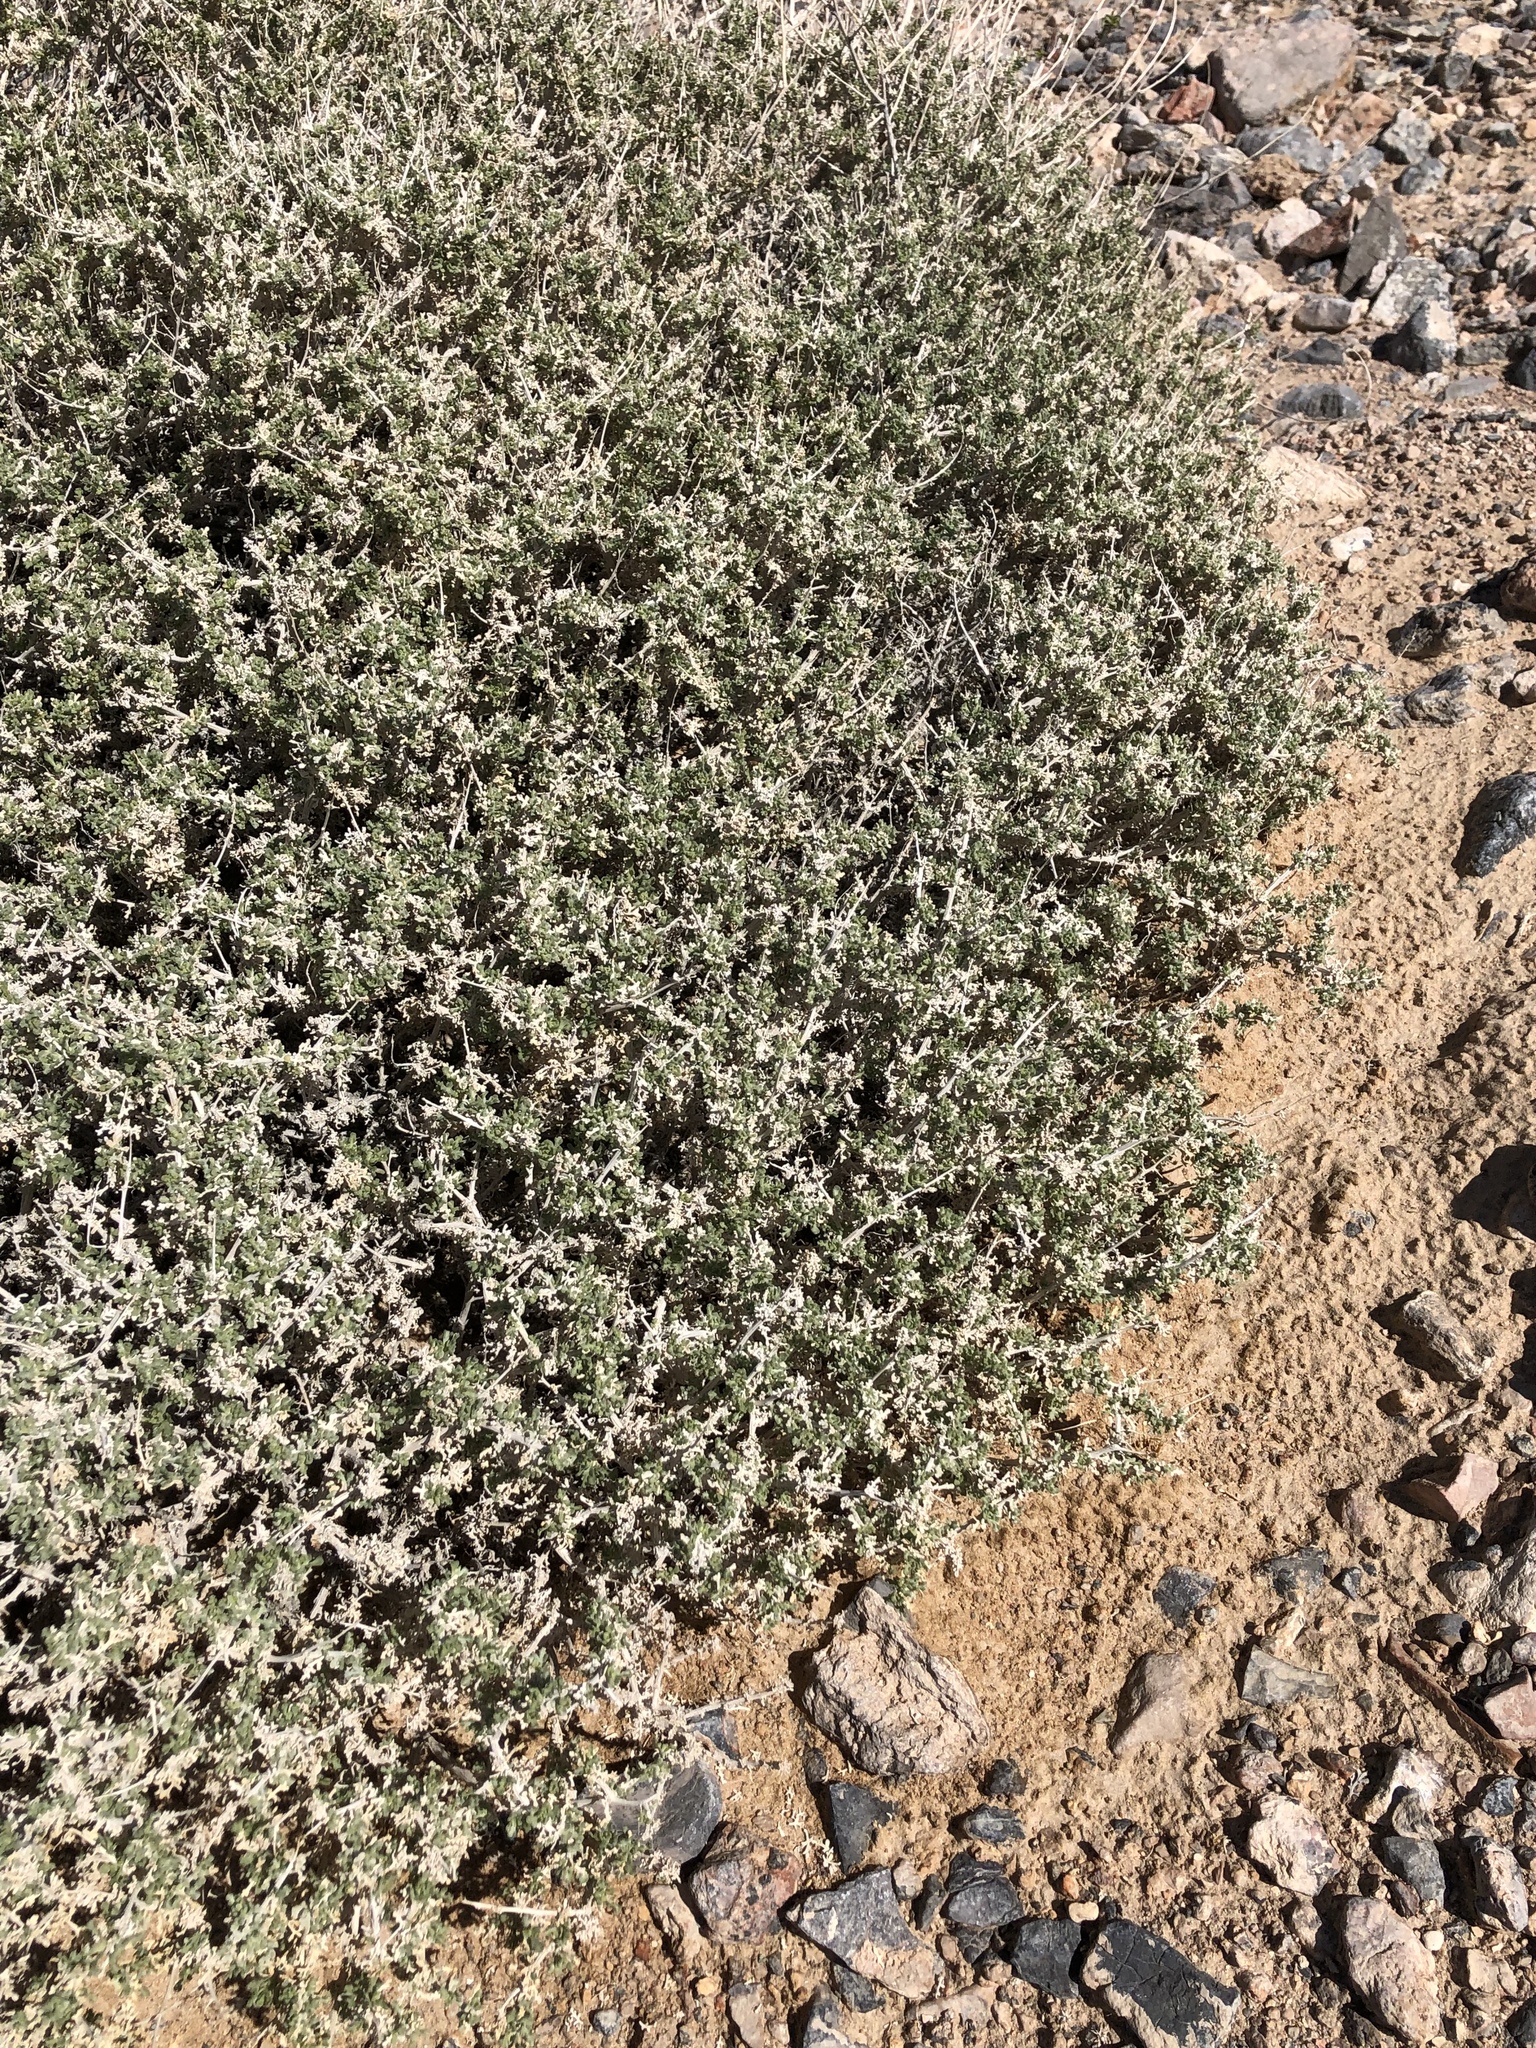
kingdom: Plantae
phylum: Tracheophyta
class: Magnoliopsida
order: Asterales
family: Asteraceae
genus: Ambrosia
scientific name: Ambrosia dumosa
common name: Bur-sage
